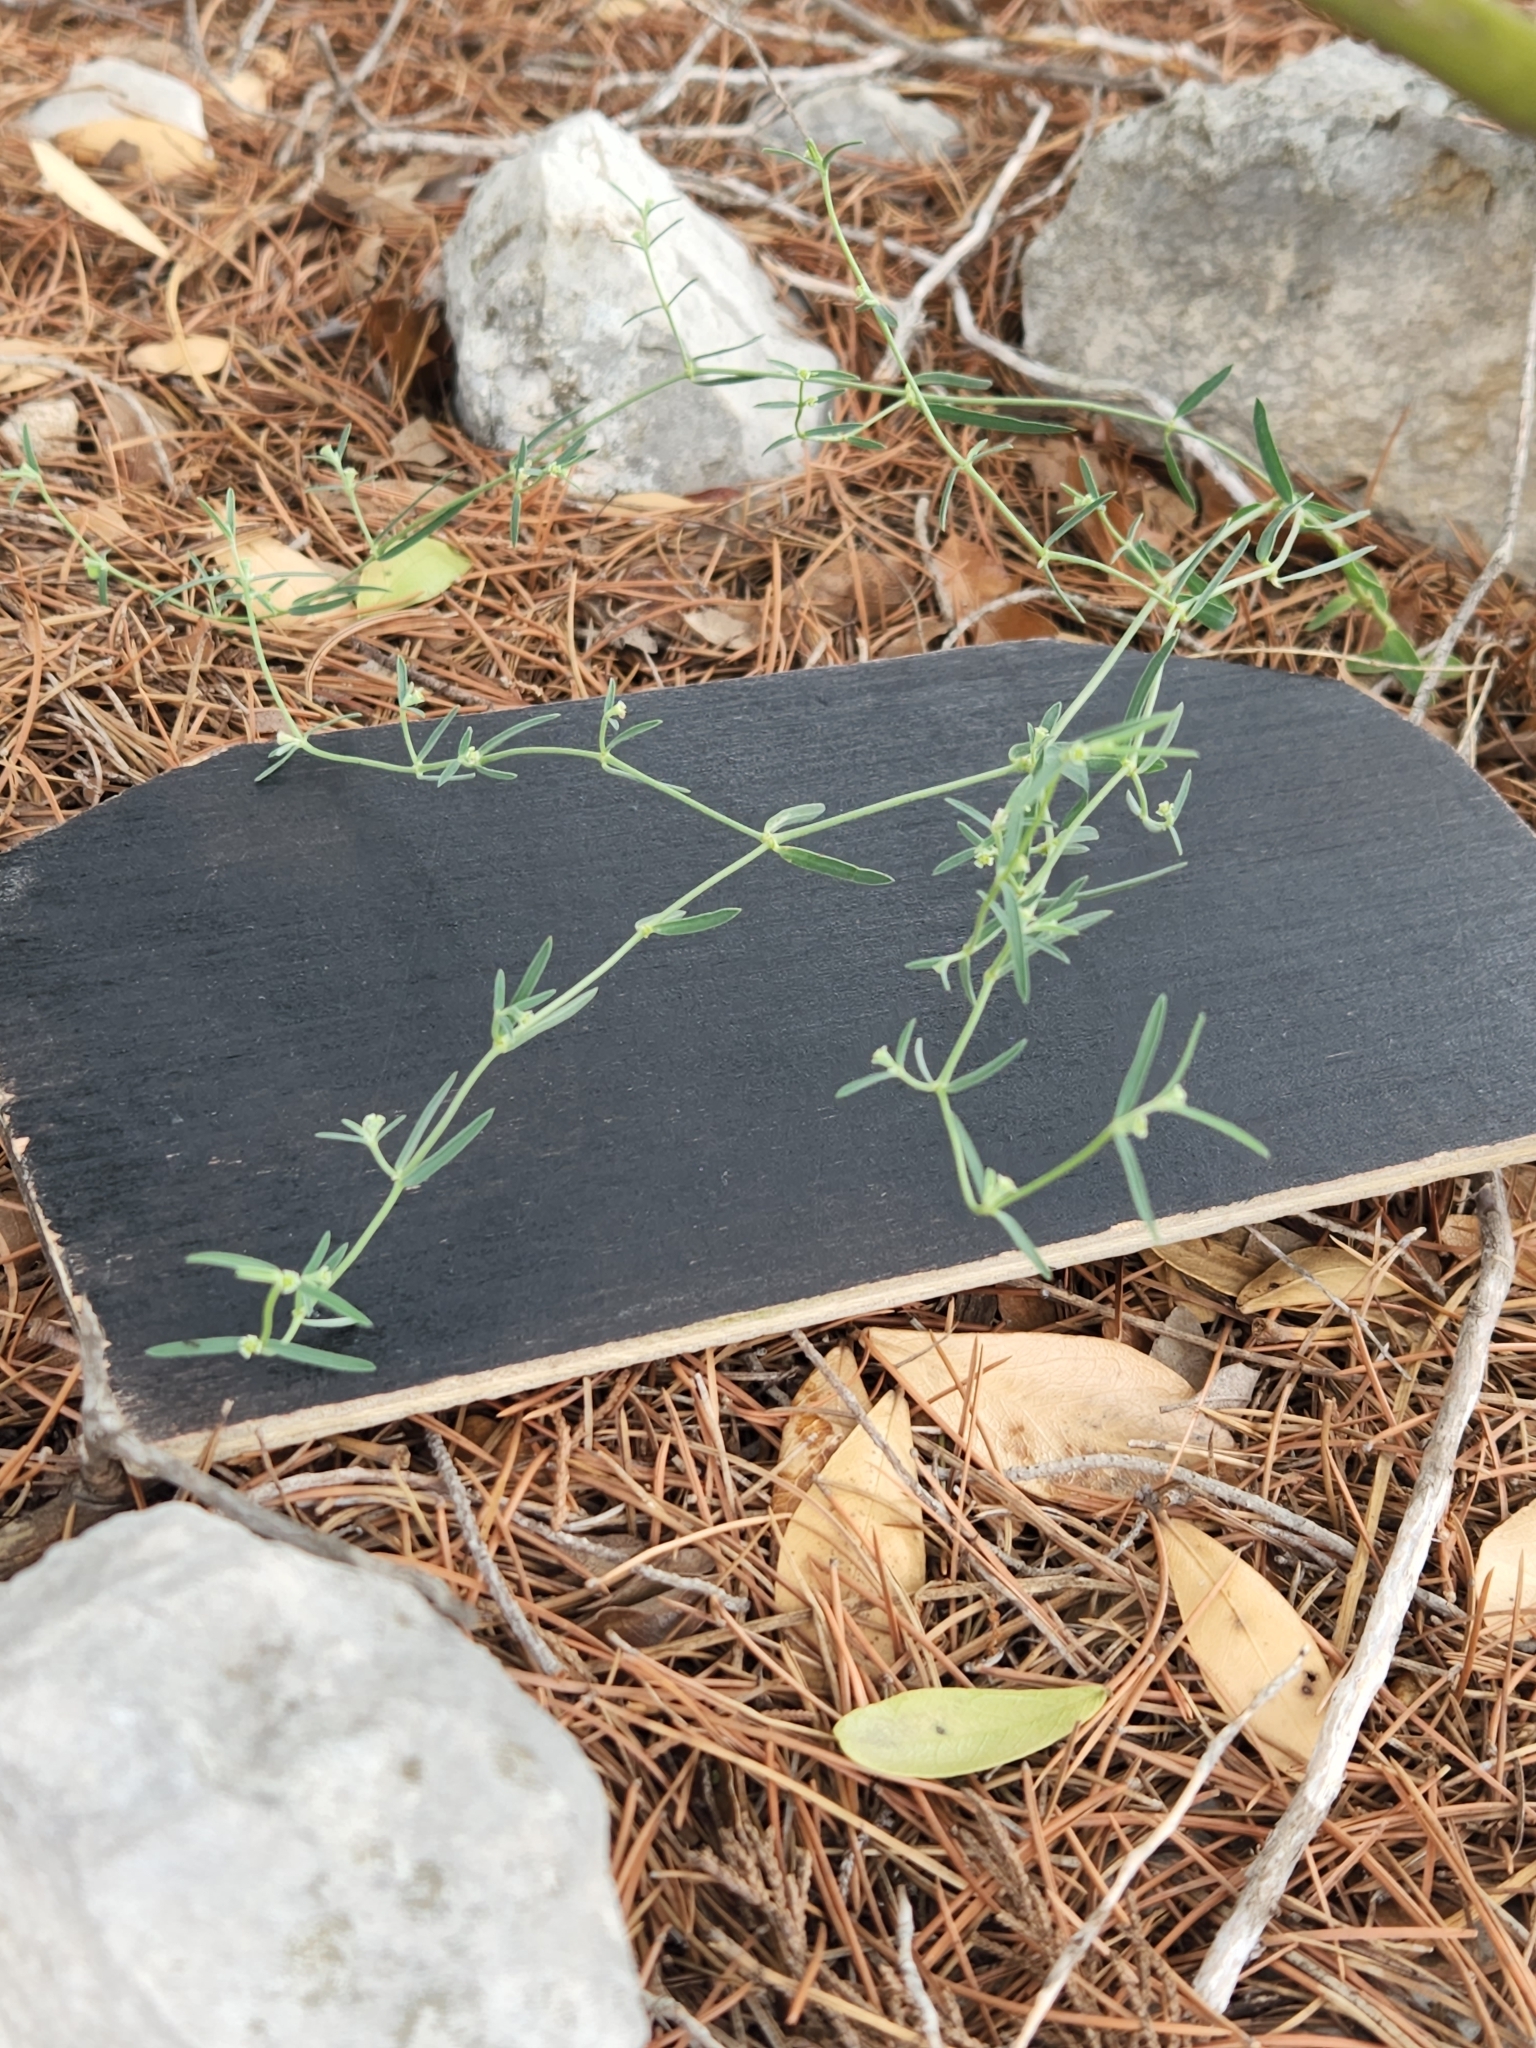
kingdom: Plantae
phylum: Tracheophyta
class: Magnoliopsida
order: Malpighiales
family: Euphorbiaceae
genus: Euphorbia
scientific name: Euphorbia angusta
